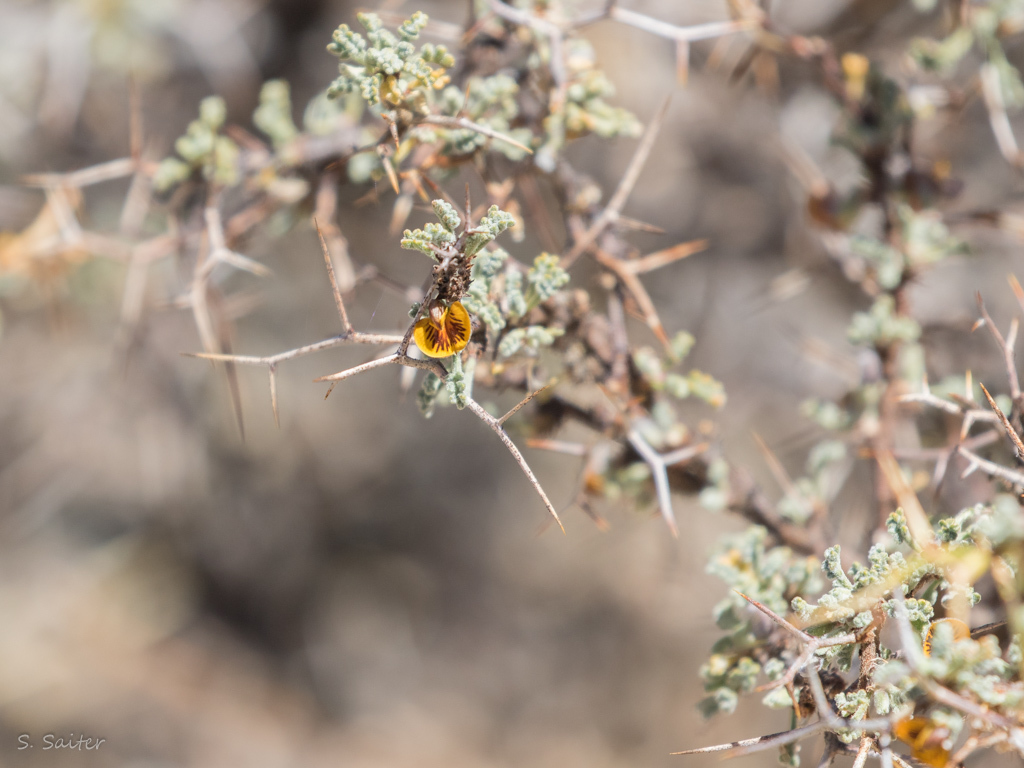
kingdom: Plantae
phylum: Tracheophyta
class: Magnoliopsida
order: Fabales
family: Fabaceae
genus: Adesmia
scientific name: Adesmia spinosissima
